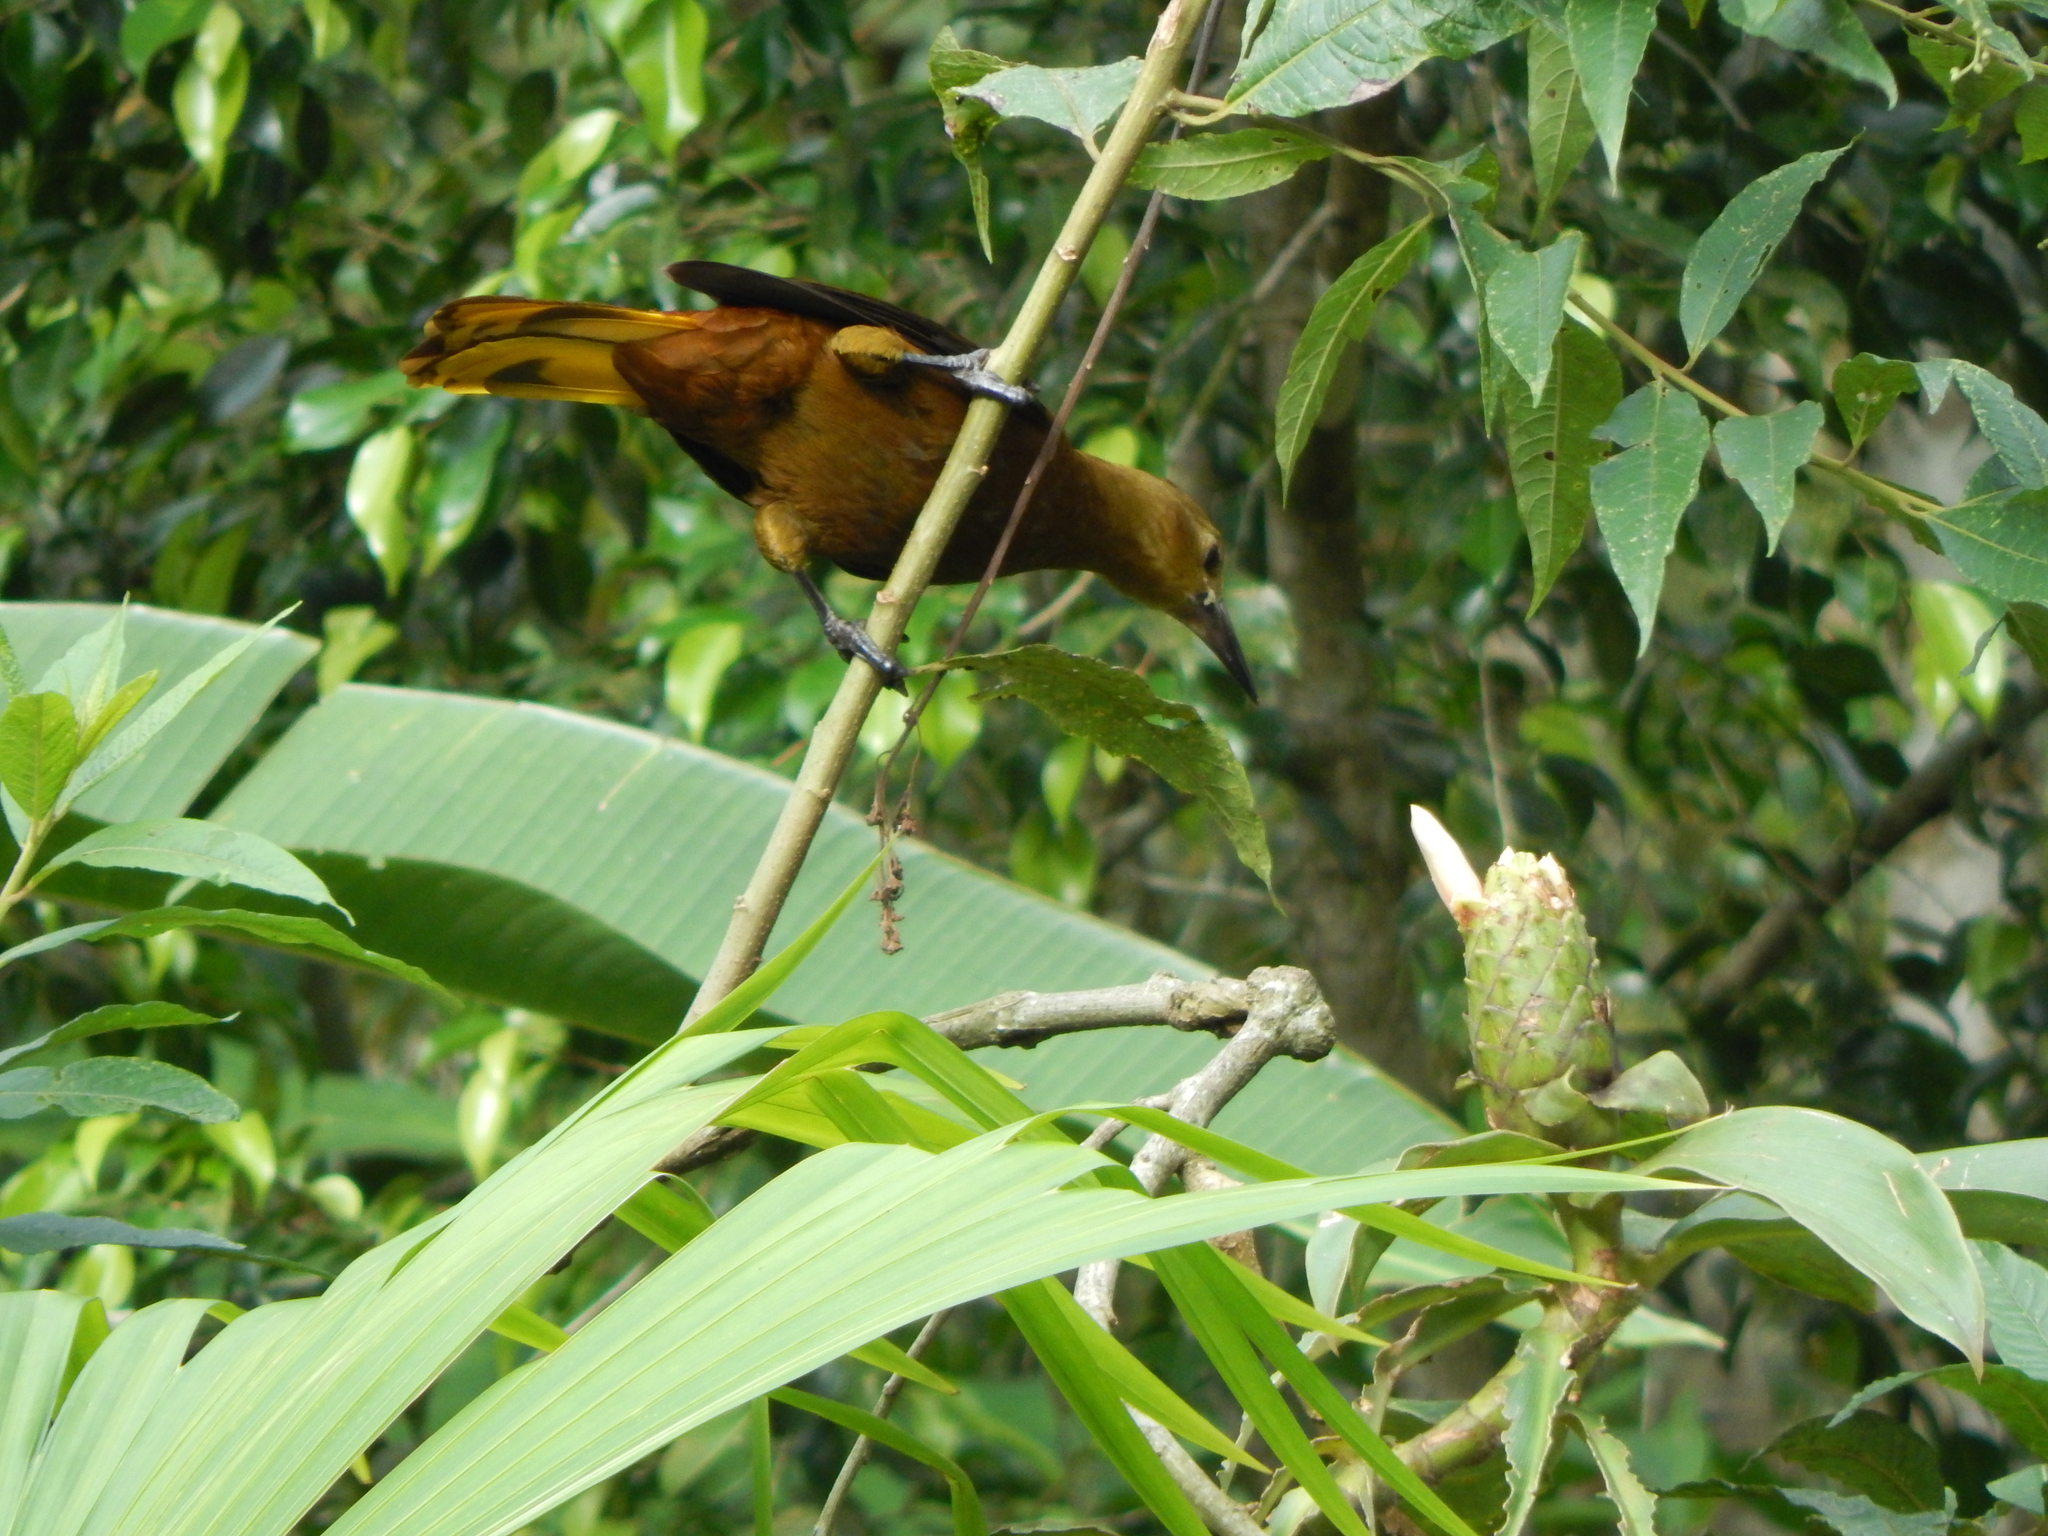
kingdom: Animalia
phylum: Chordata
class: Aves
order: Passeriformes
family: Icteridae
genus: Psarocolius
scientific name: Psarocolius angustifrons
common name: Russet-backed oropendola
